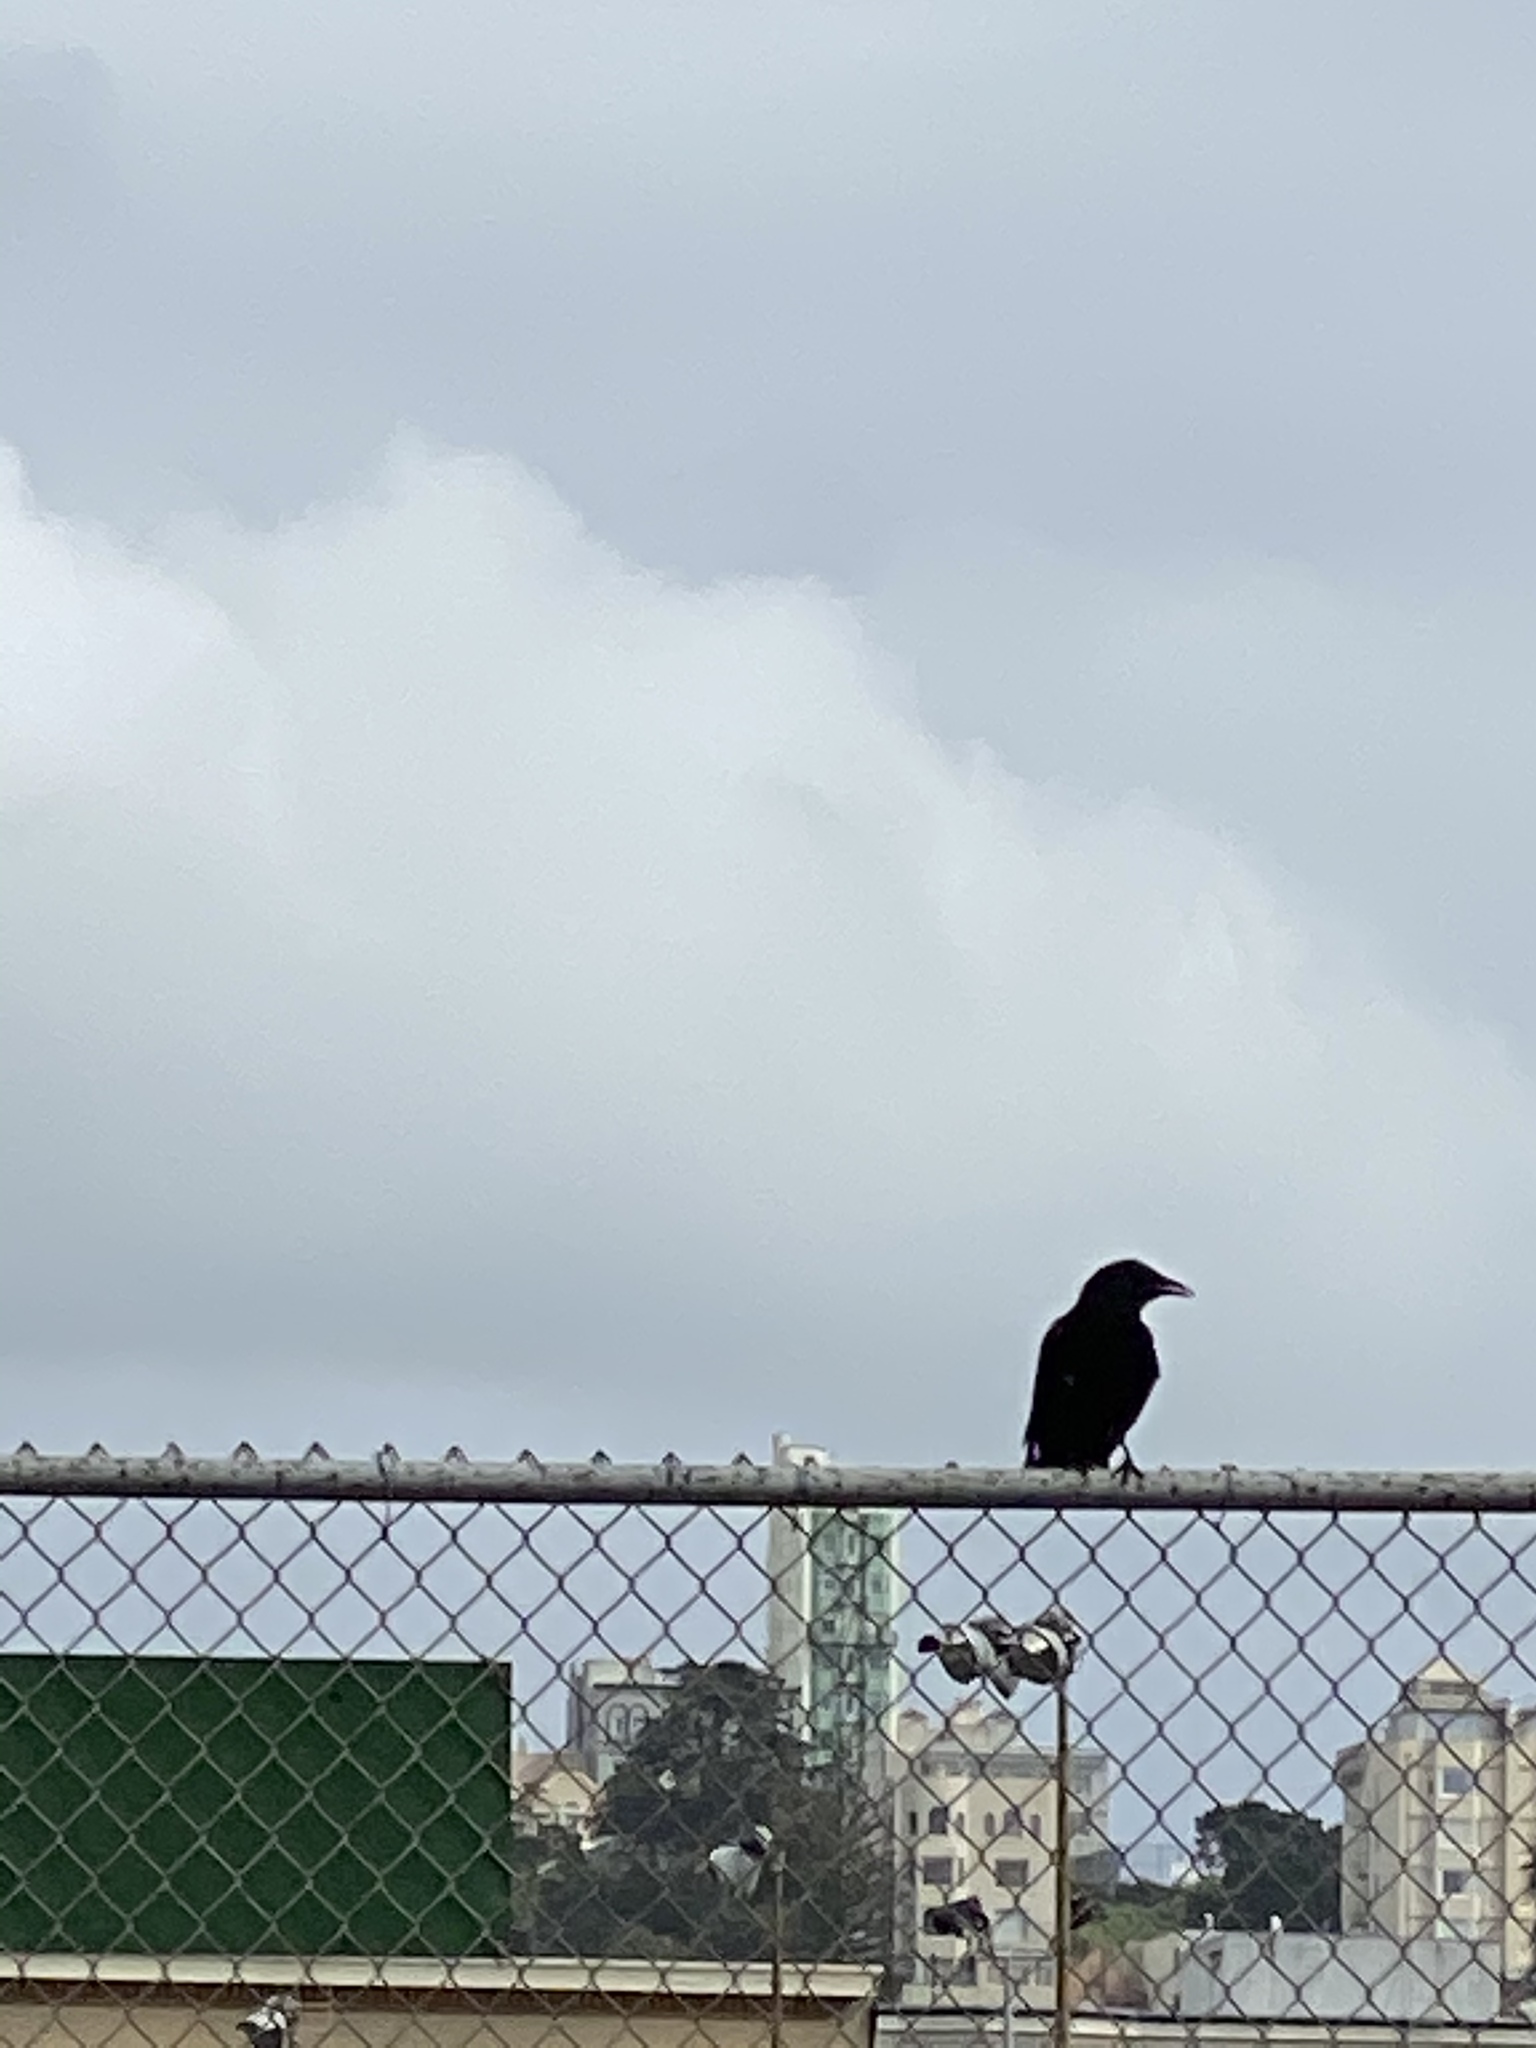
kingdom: Animalia
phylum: Chordata
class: Aves
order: Passeriformes
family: Corvidae
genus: Corvus
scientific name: Corvus brachyrhynchos
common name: American crow
